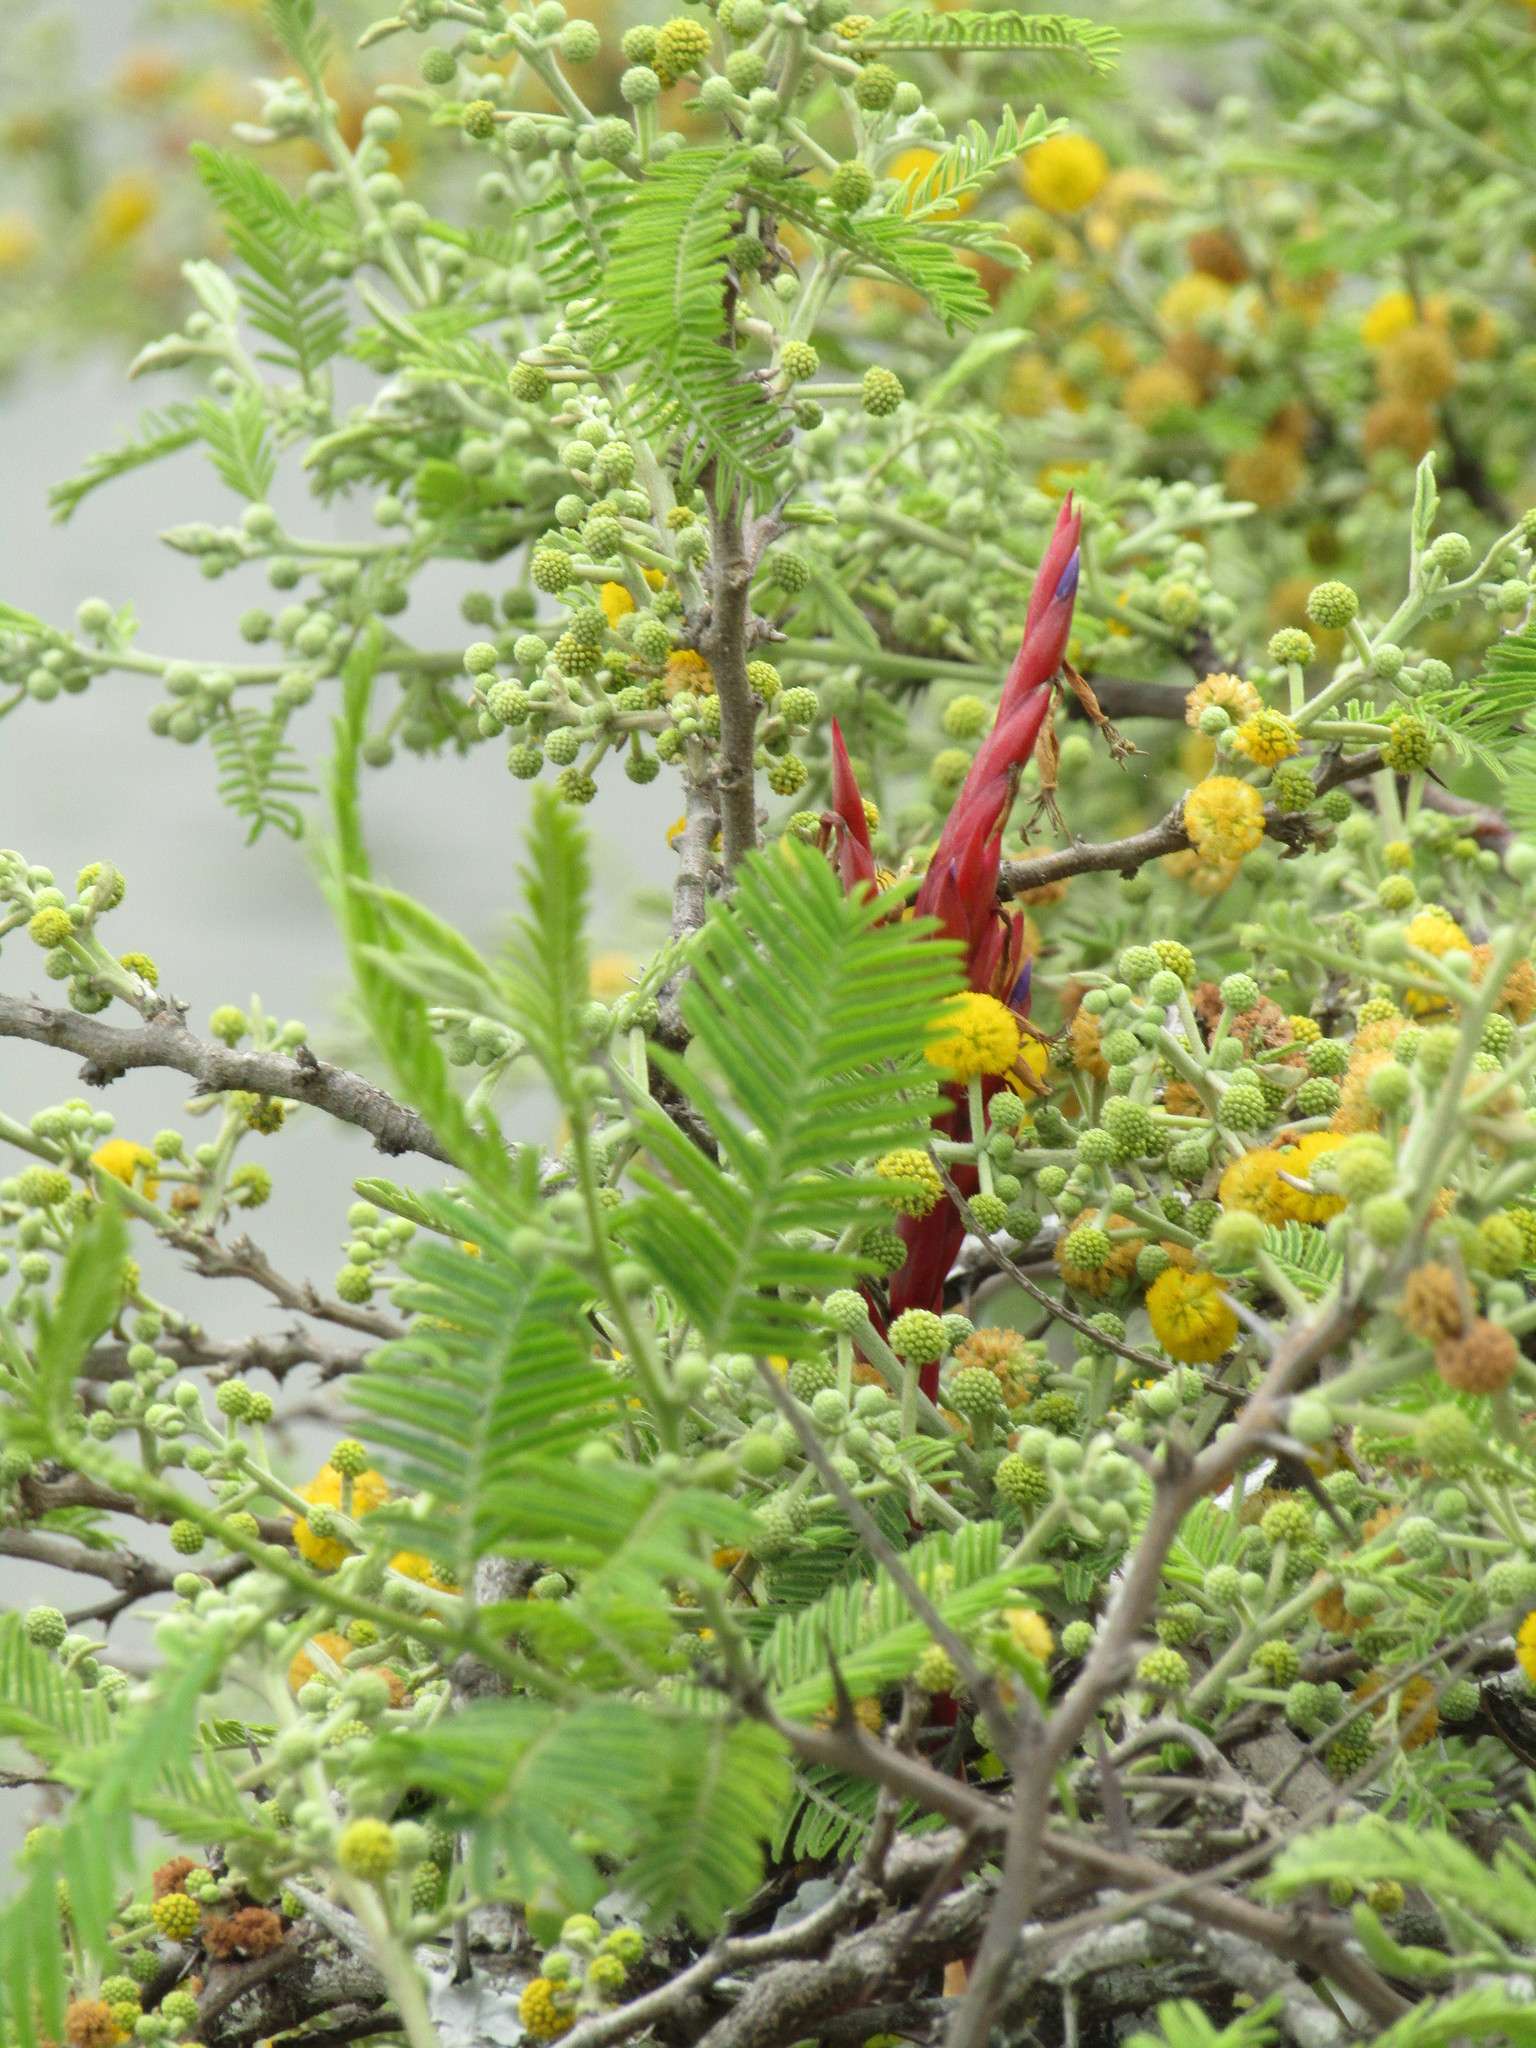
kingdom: Plantae
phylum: Tracheophyta
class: Magnoliopsida
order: Fabales
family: Fabaceae
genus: Vachellia
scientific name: Vachellia farnesiana
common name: Sweet acacia
